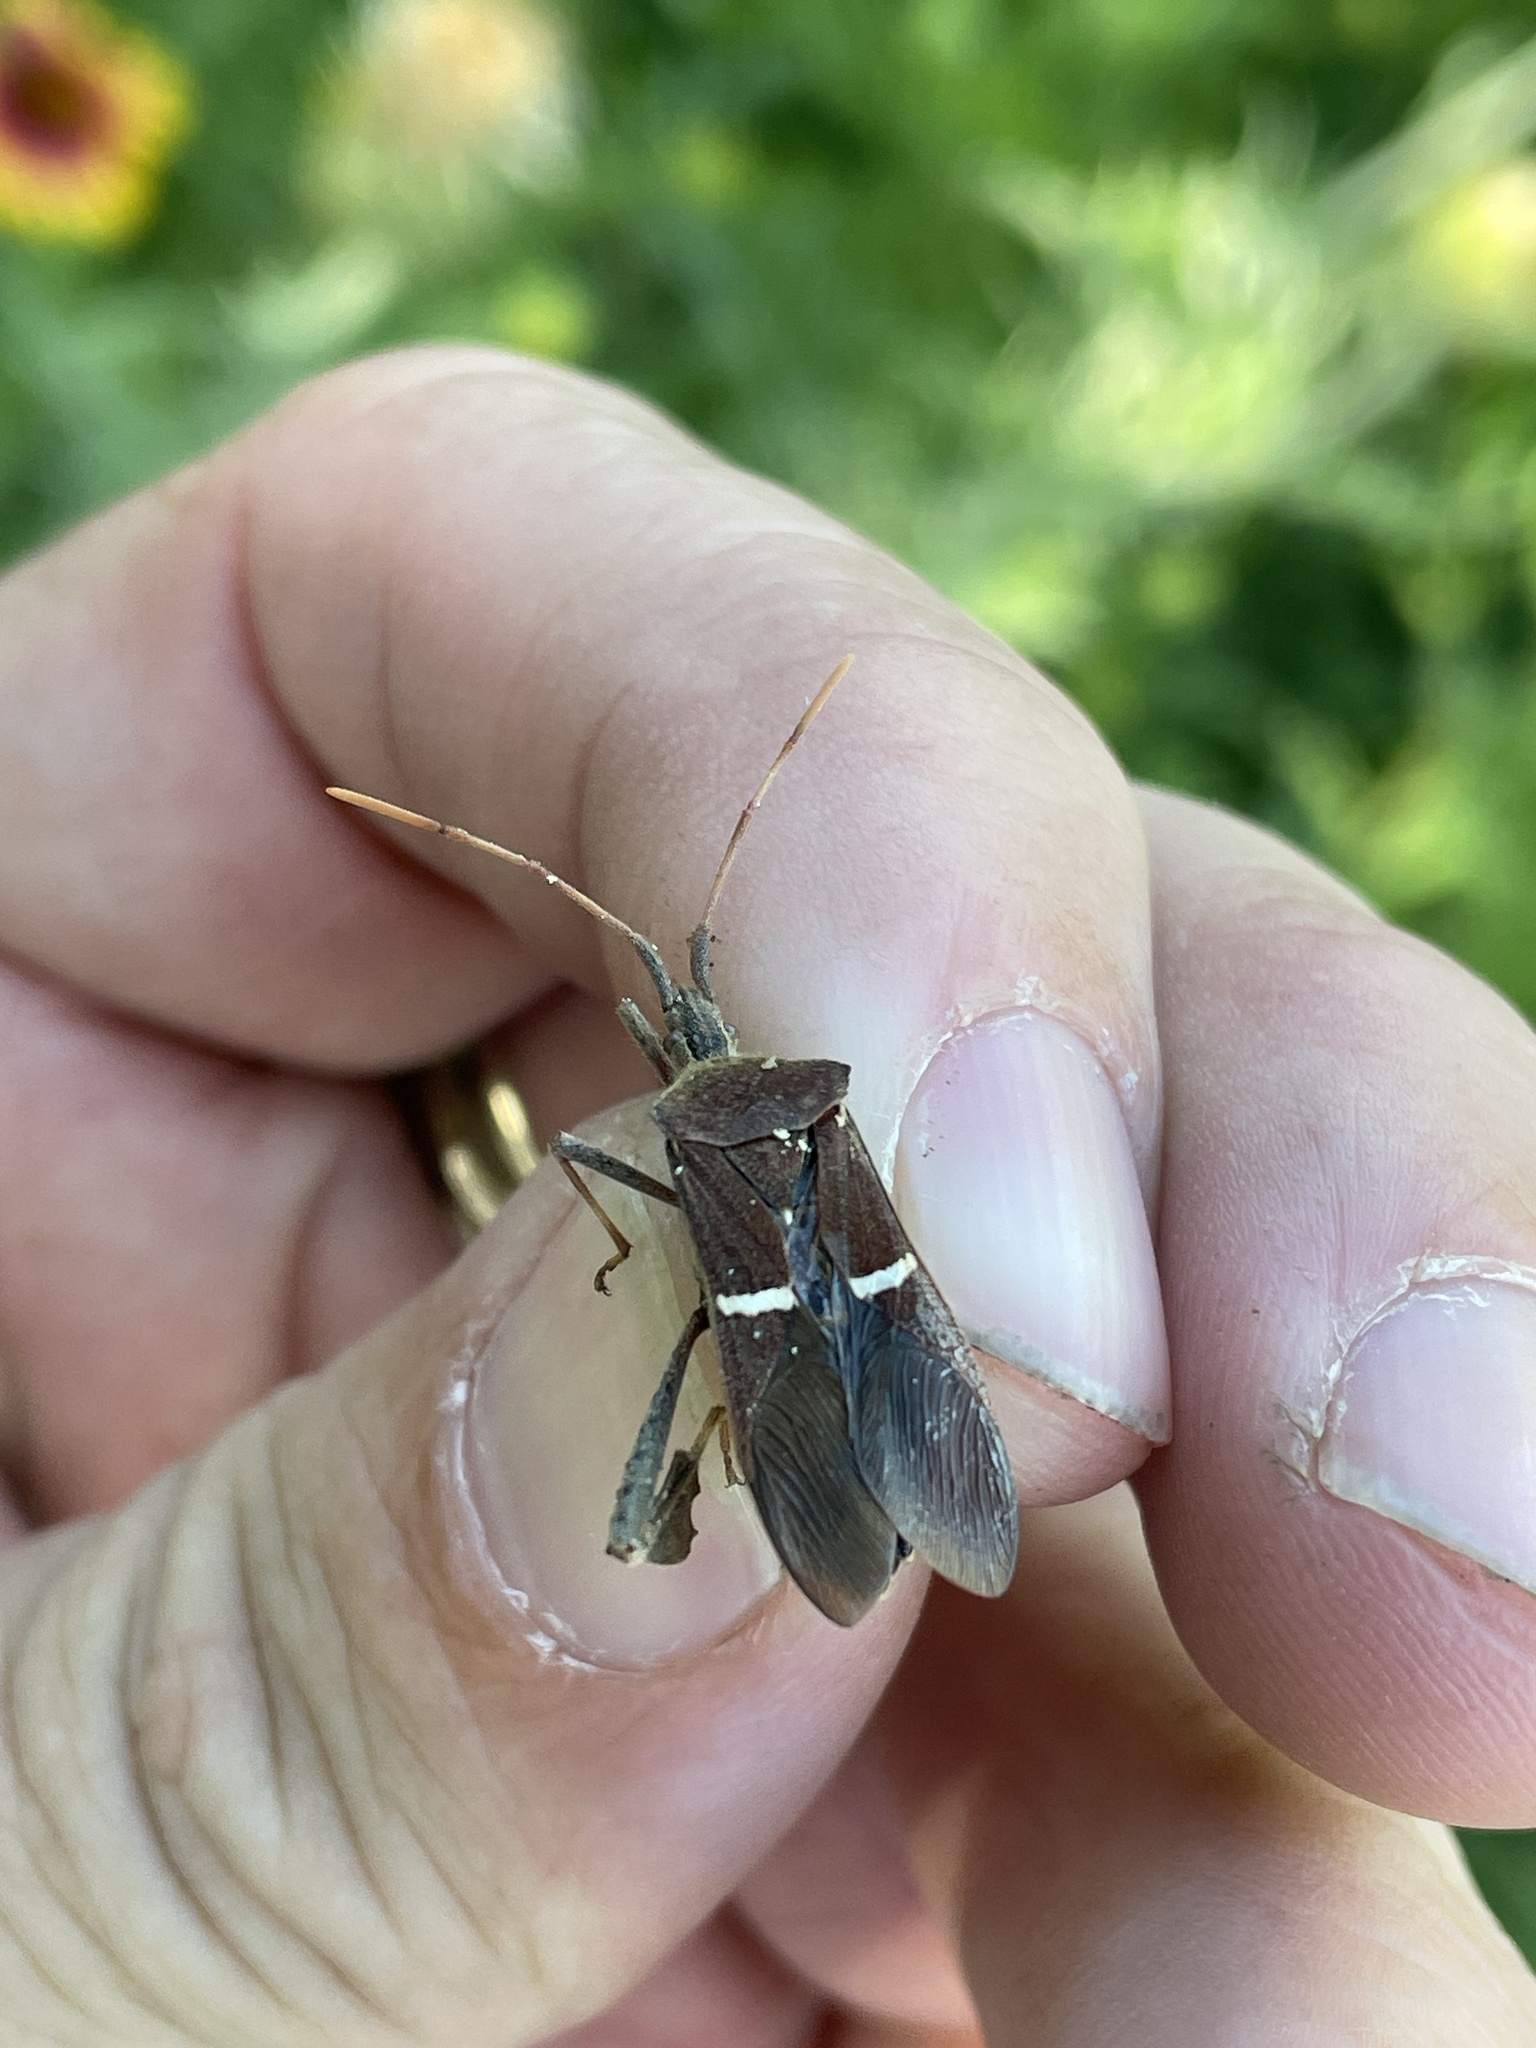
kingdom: Animalia
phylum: Arthropoda
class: Insecta
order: Hemiptera
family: Coreidae
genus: Leptoglossus
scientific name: Leptoglossus phyllopus
